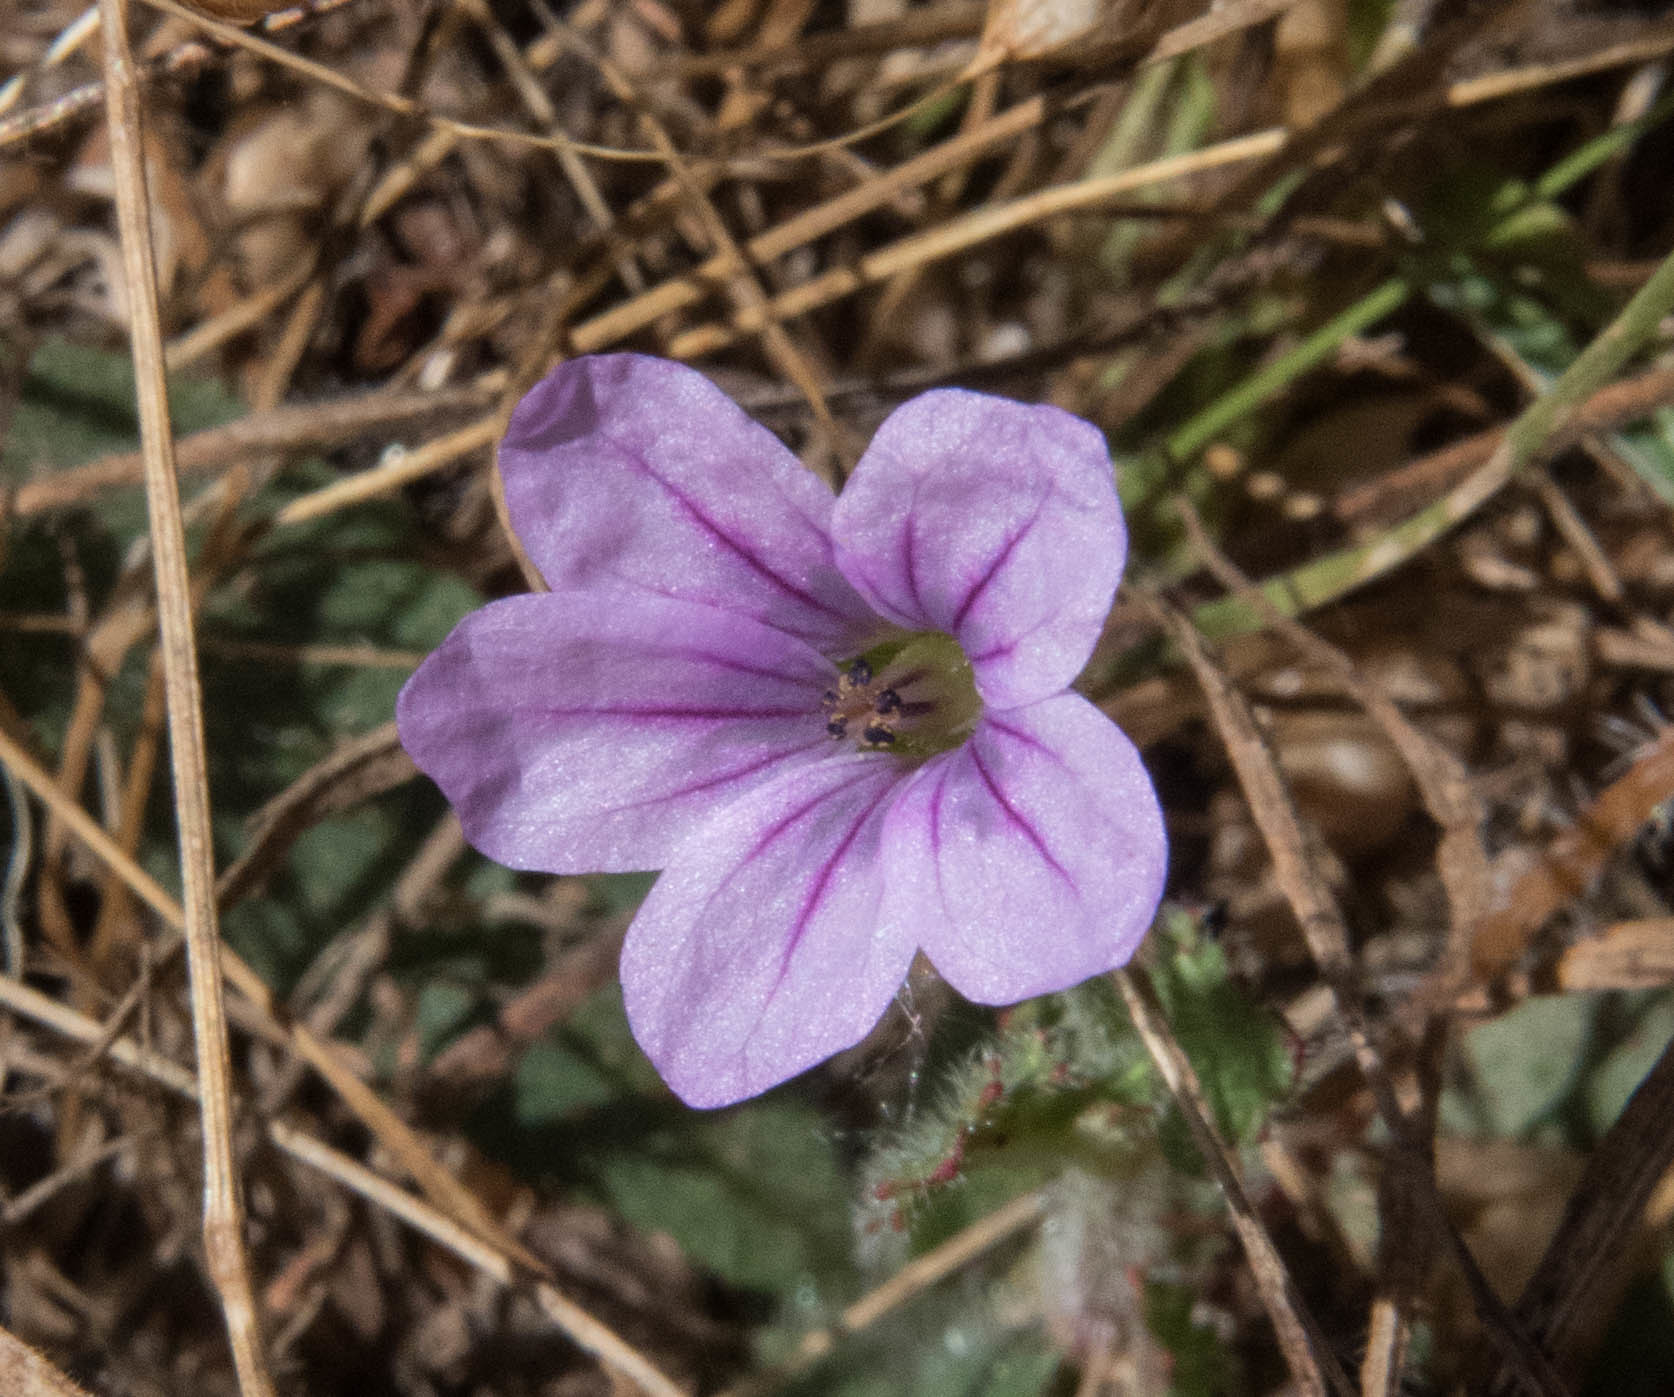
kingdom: Plantae
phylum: Tracheophyta
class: Magnoliopsida
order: Geraniales
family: Geraniaceae
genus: Erodium
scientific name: Erodium botrys
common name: Mediterranean stork's-bill
